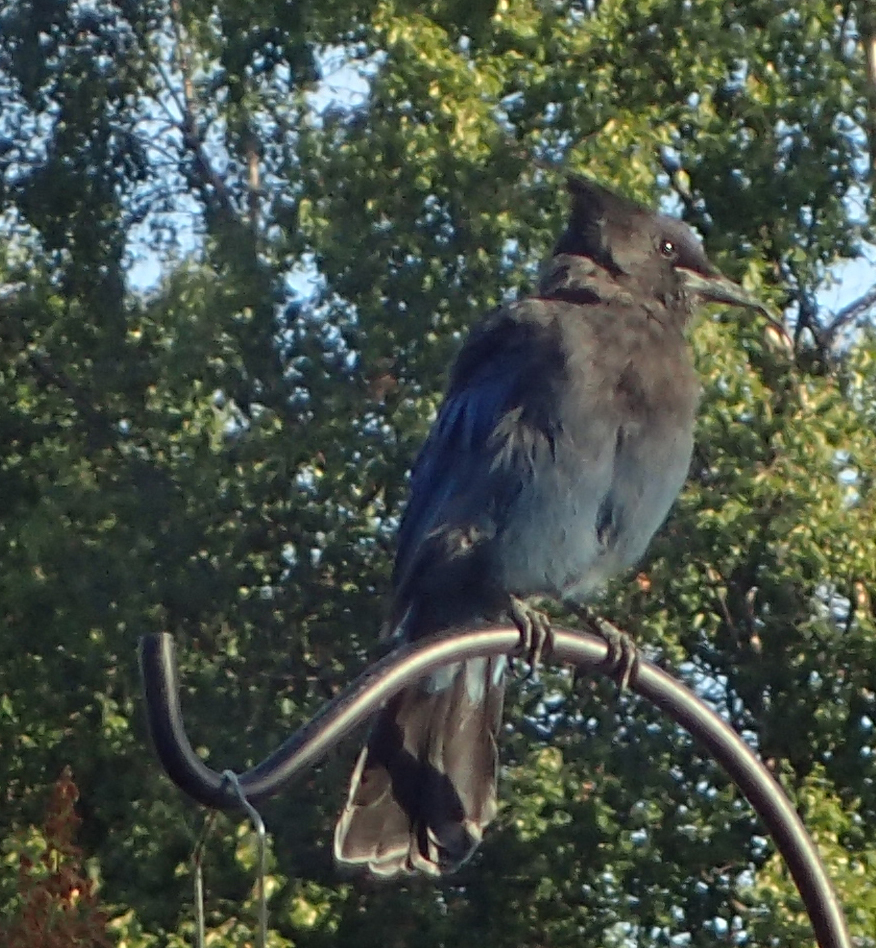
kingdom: Animalia
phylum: Chordata
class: Aves
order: Passeriformes
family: Corvidae
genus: Cyanocitta
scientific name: Cyanocitta stelleri
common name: Steller's jay
